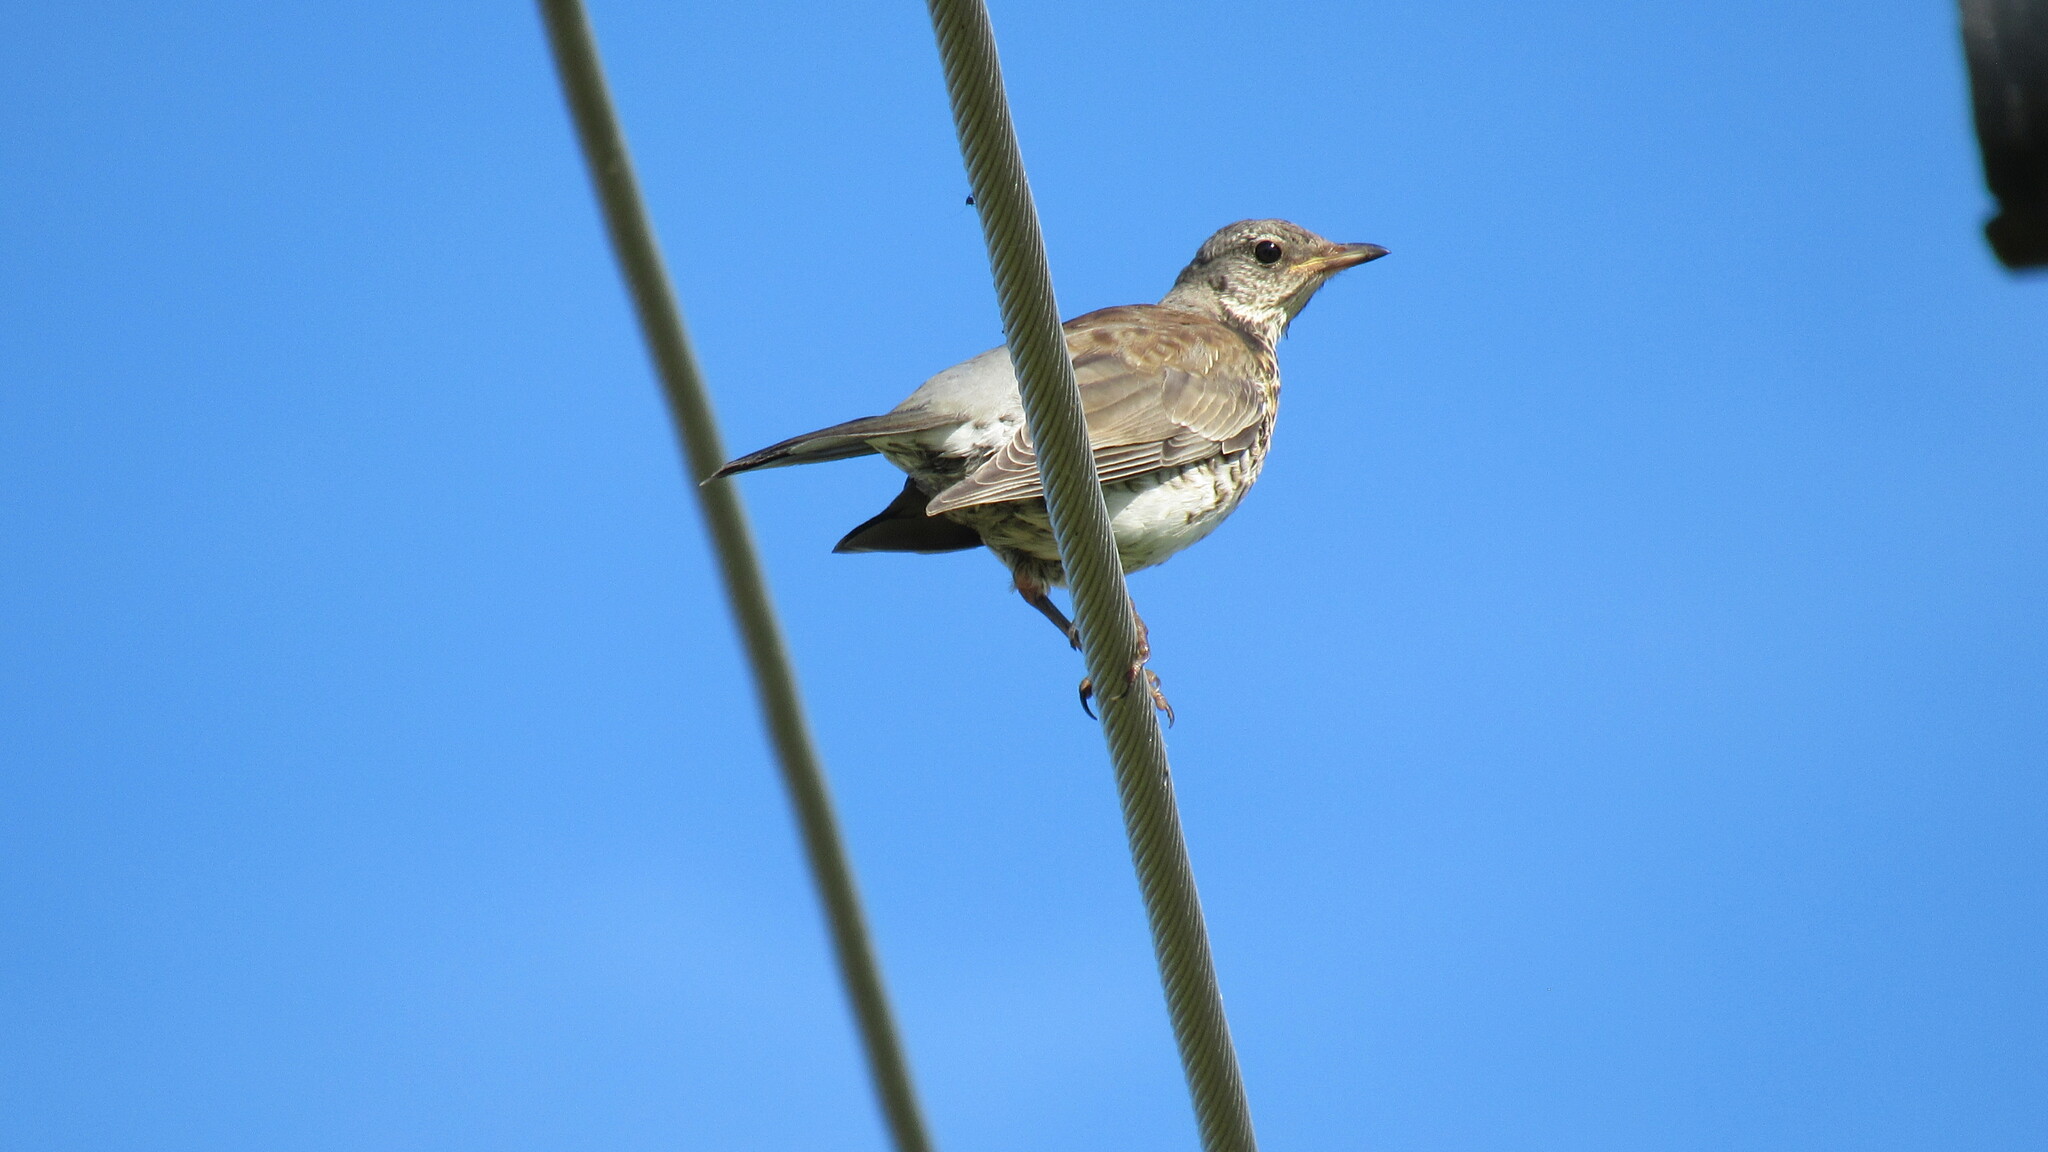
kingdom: Animalia
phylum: Chordata
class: Aves
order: Passeriformes
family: Turdidae
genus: Turdus
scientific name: Turdus pilaris
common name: Fieldfare
